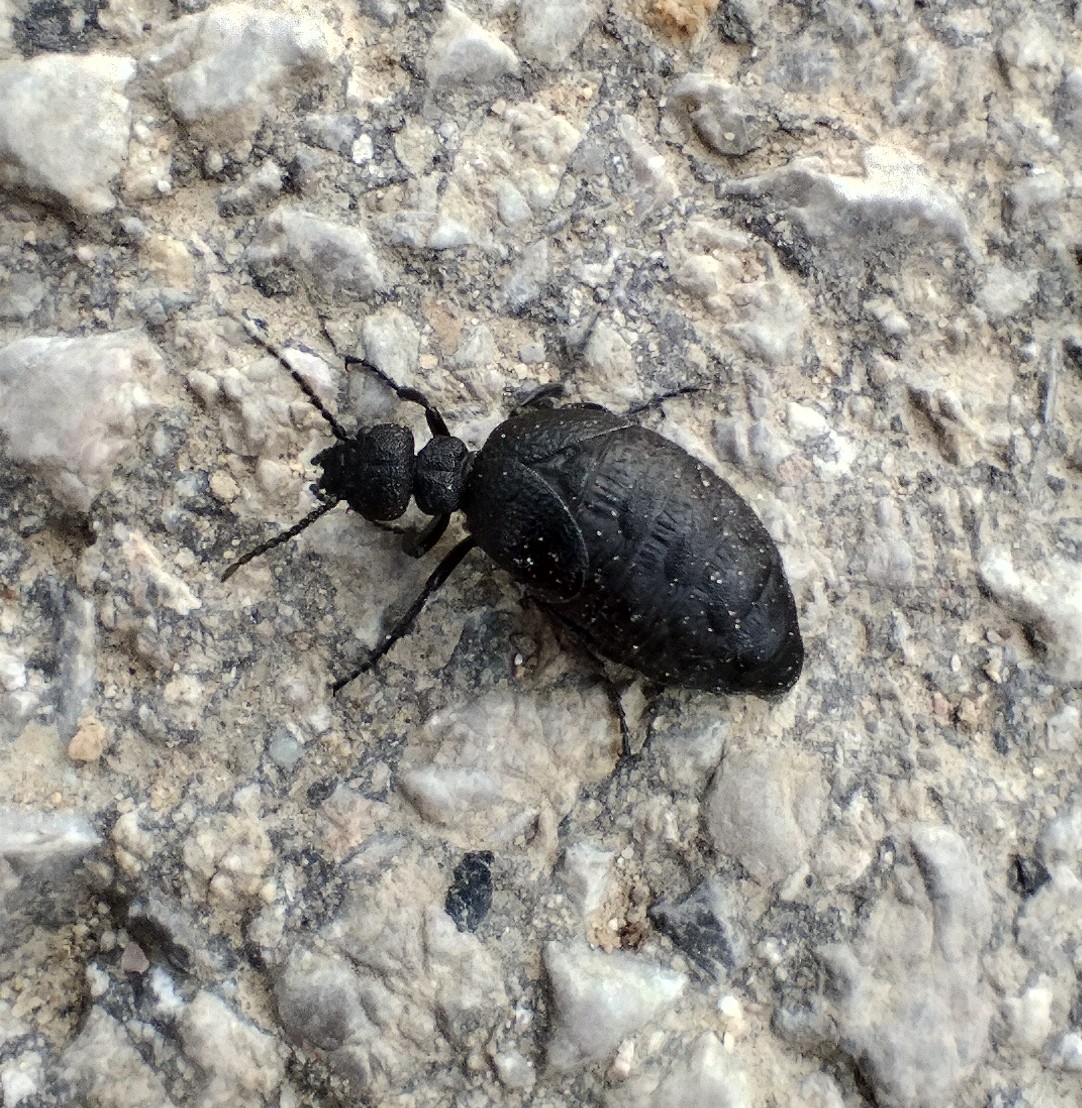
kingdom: Animalia
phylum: Arthropoda
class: Insecta
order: Coleoptera
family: Meloidae
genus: Meloe
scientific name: Meloe rugosus
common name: Rugged oil-beetle
